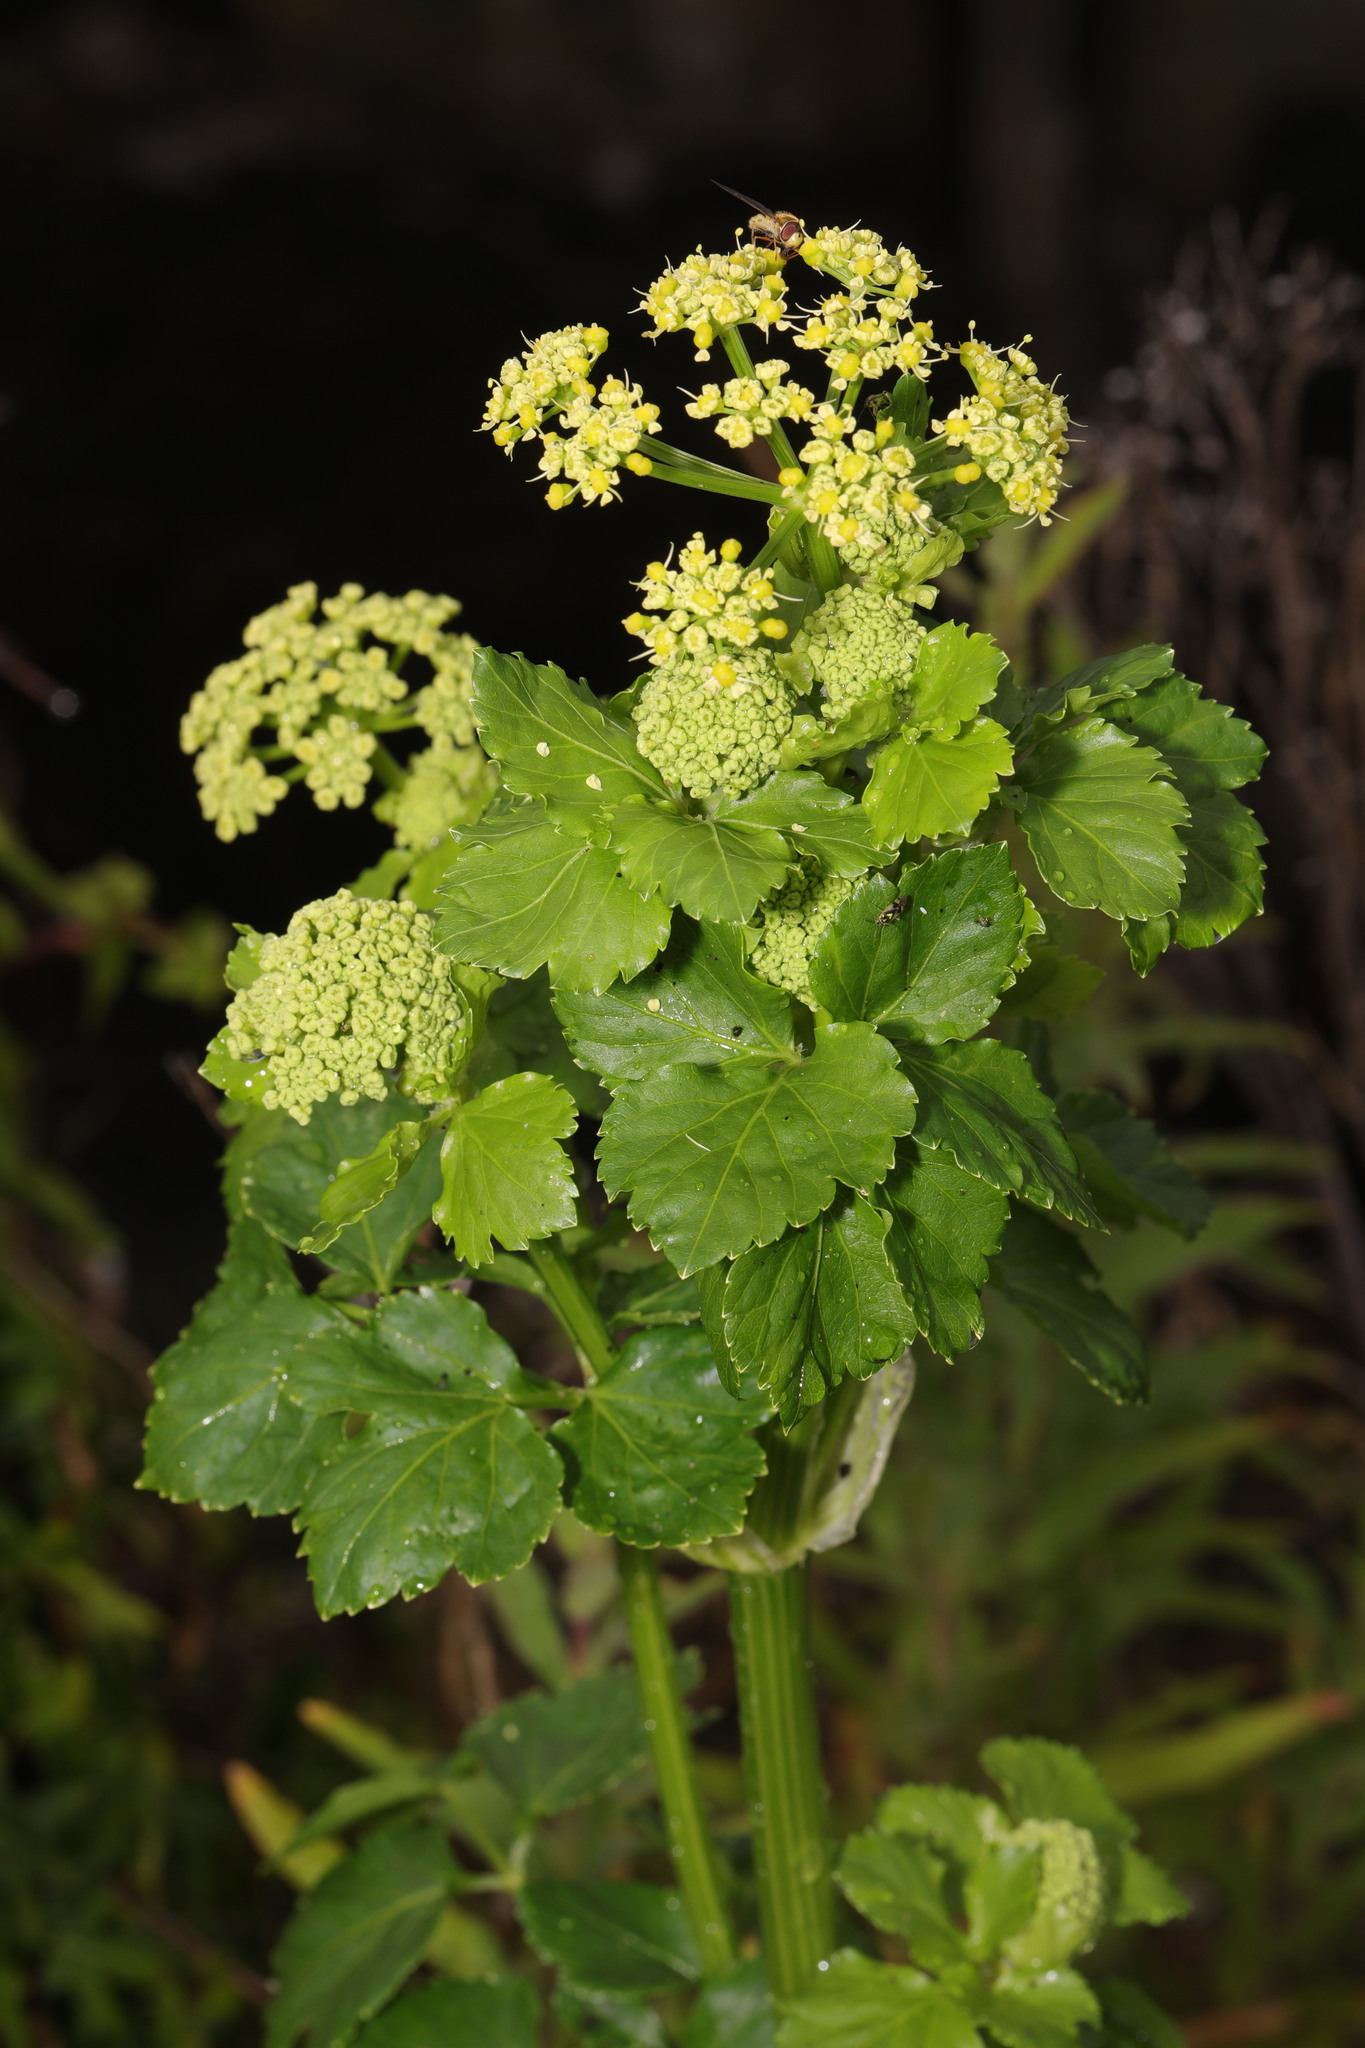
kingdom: Plantae
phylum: Tracheophyta
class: Magnoliopsida
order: Apiales
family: Apiaceae
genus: Smyrnium
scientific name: Smyrnium olusatrum
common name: Alexanders
